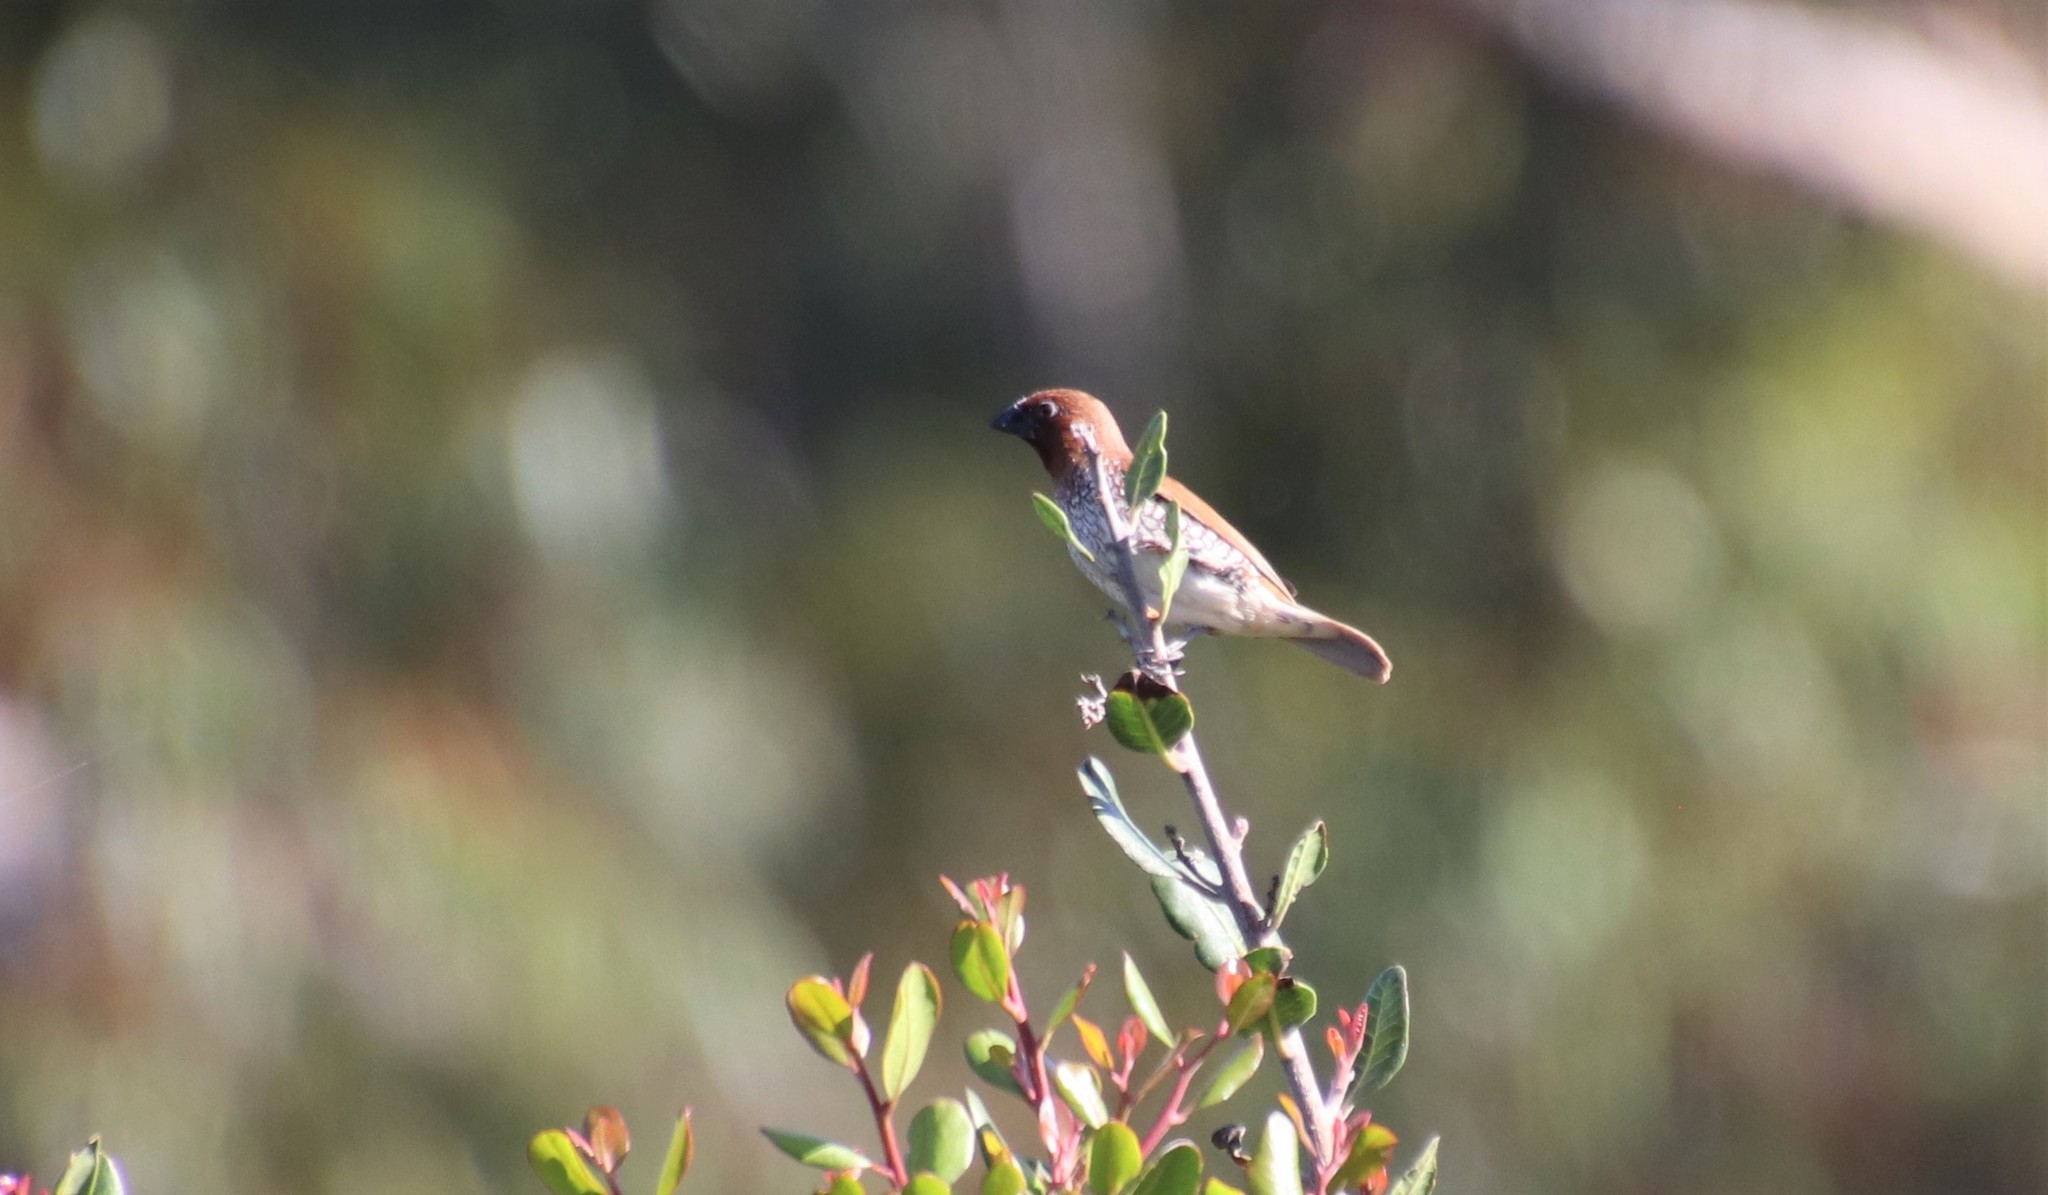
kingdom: Animalia
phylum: Chordata
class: Aves
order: Passeriformes
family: Estrildidae
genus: Lonchura
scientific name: Lonchura punctulata
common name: Scaly-breasted munia
